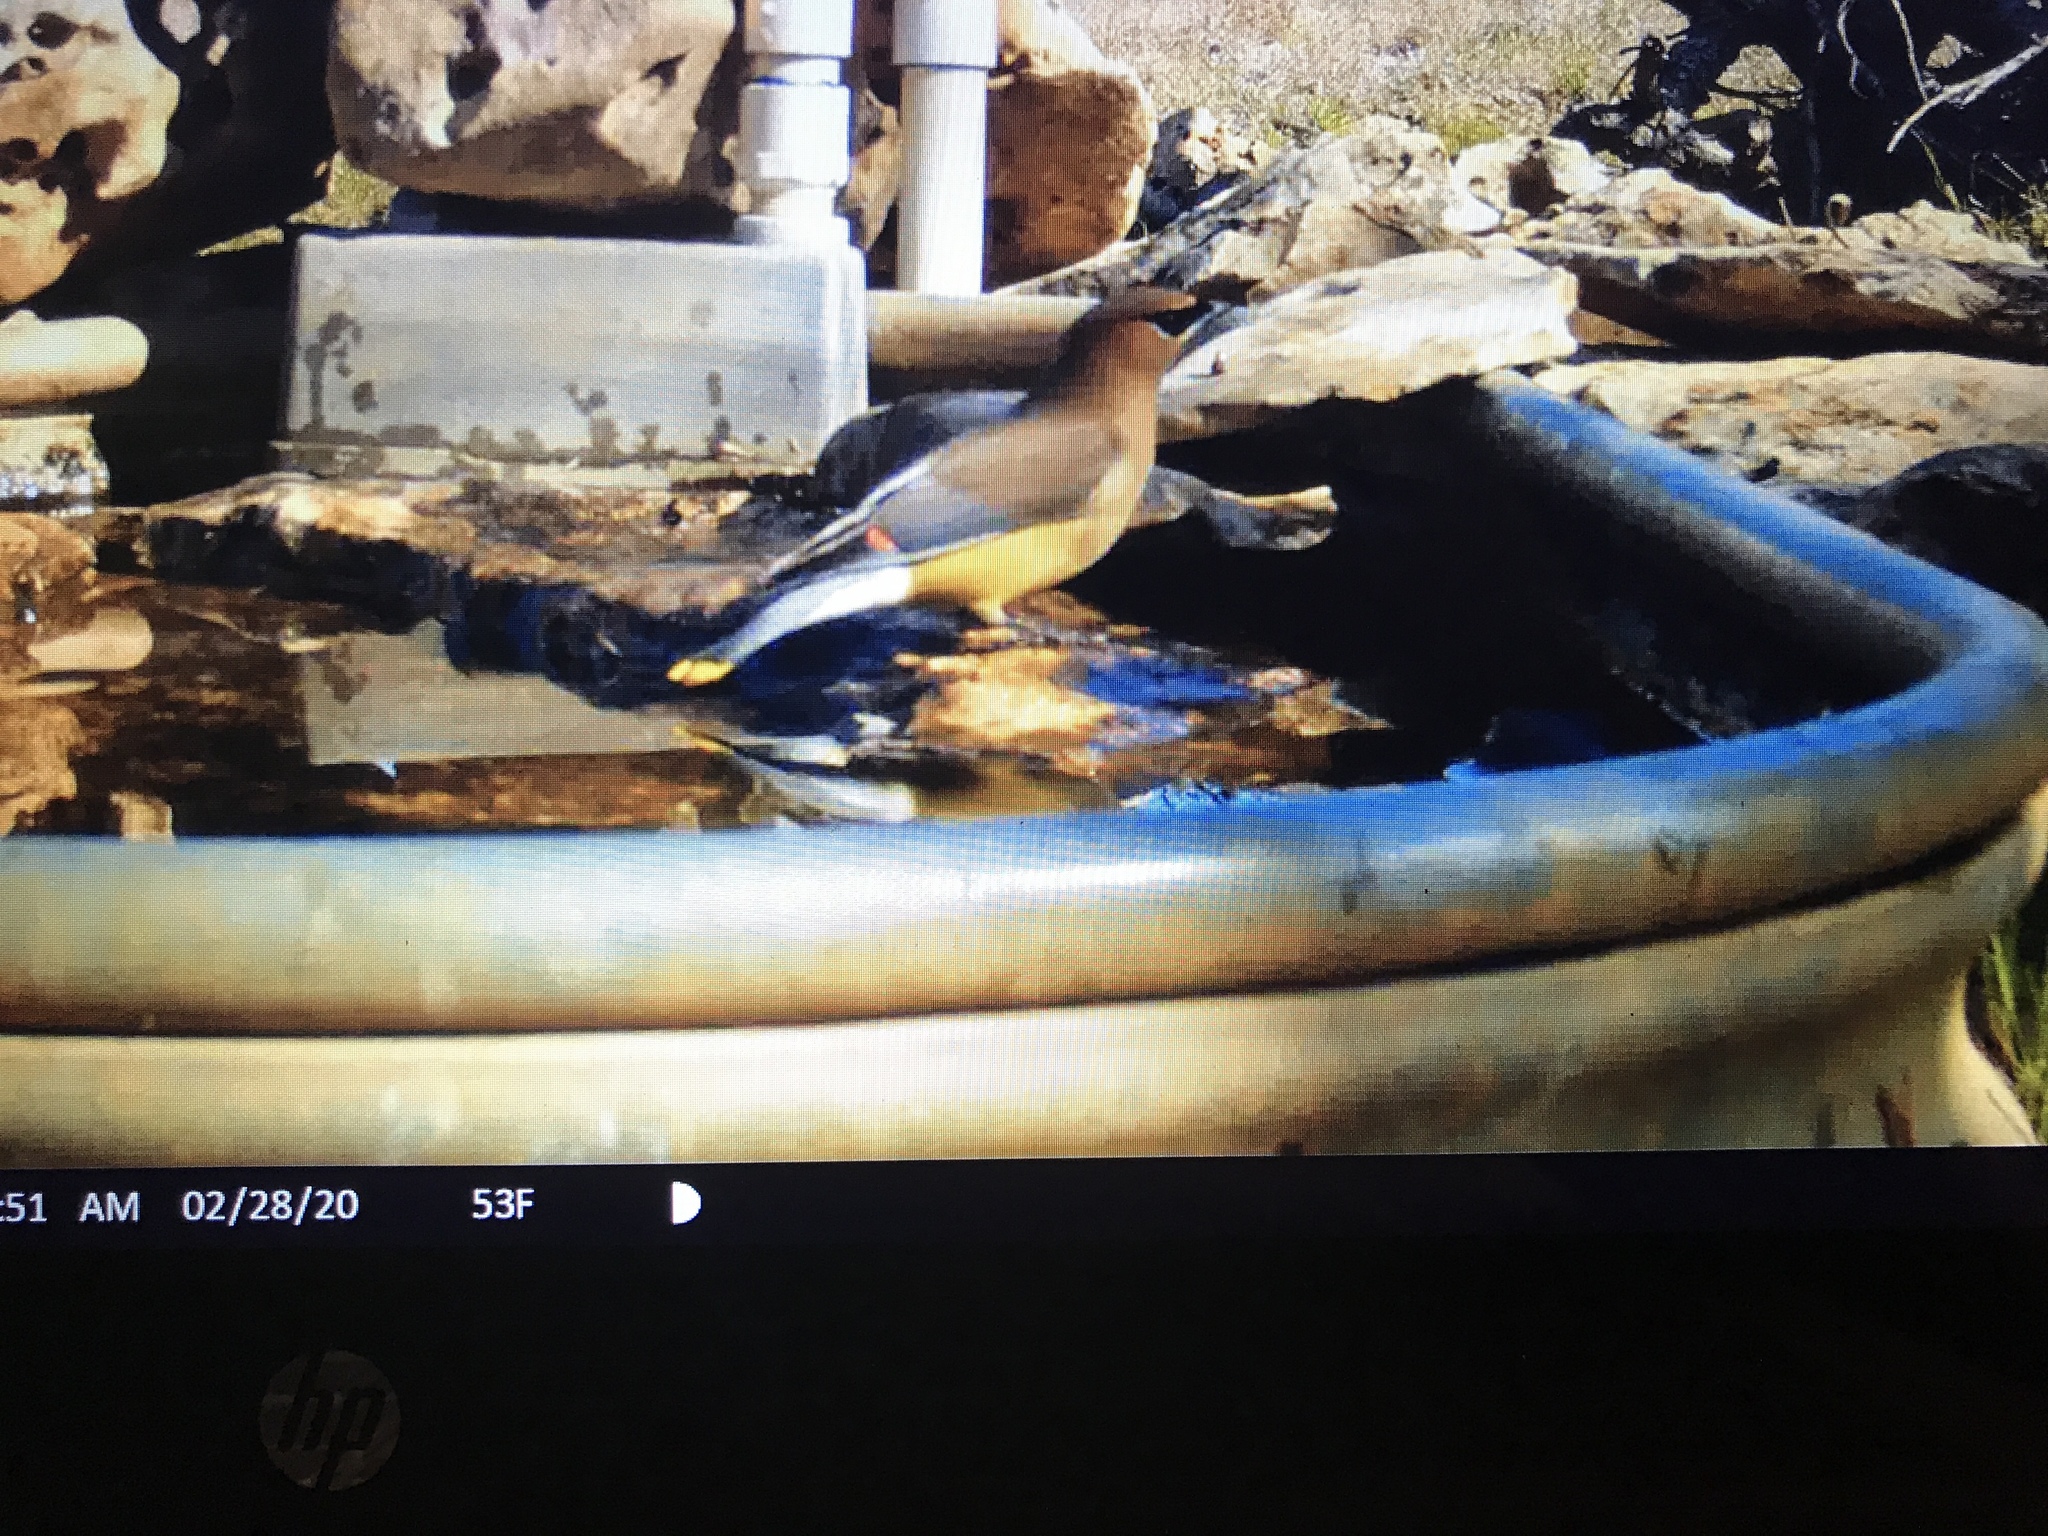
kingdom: Animalia
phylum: Chordata
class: Aves
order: Passeriformes
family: Bombycillidae
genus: Bombycilla
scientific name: Bombycilla cedrorum
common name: Cedar waxwing
